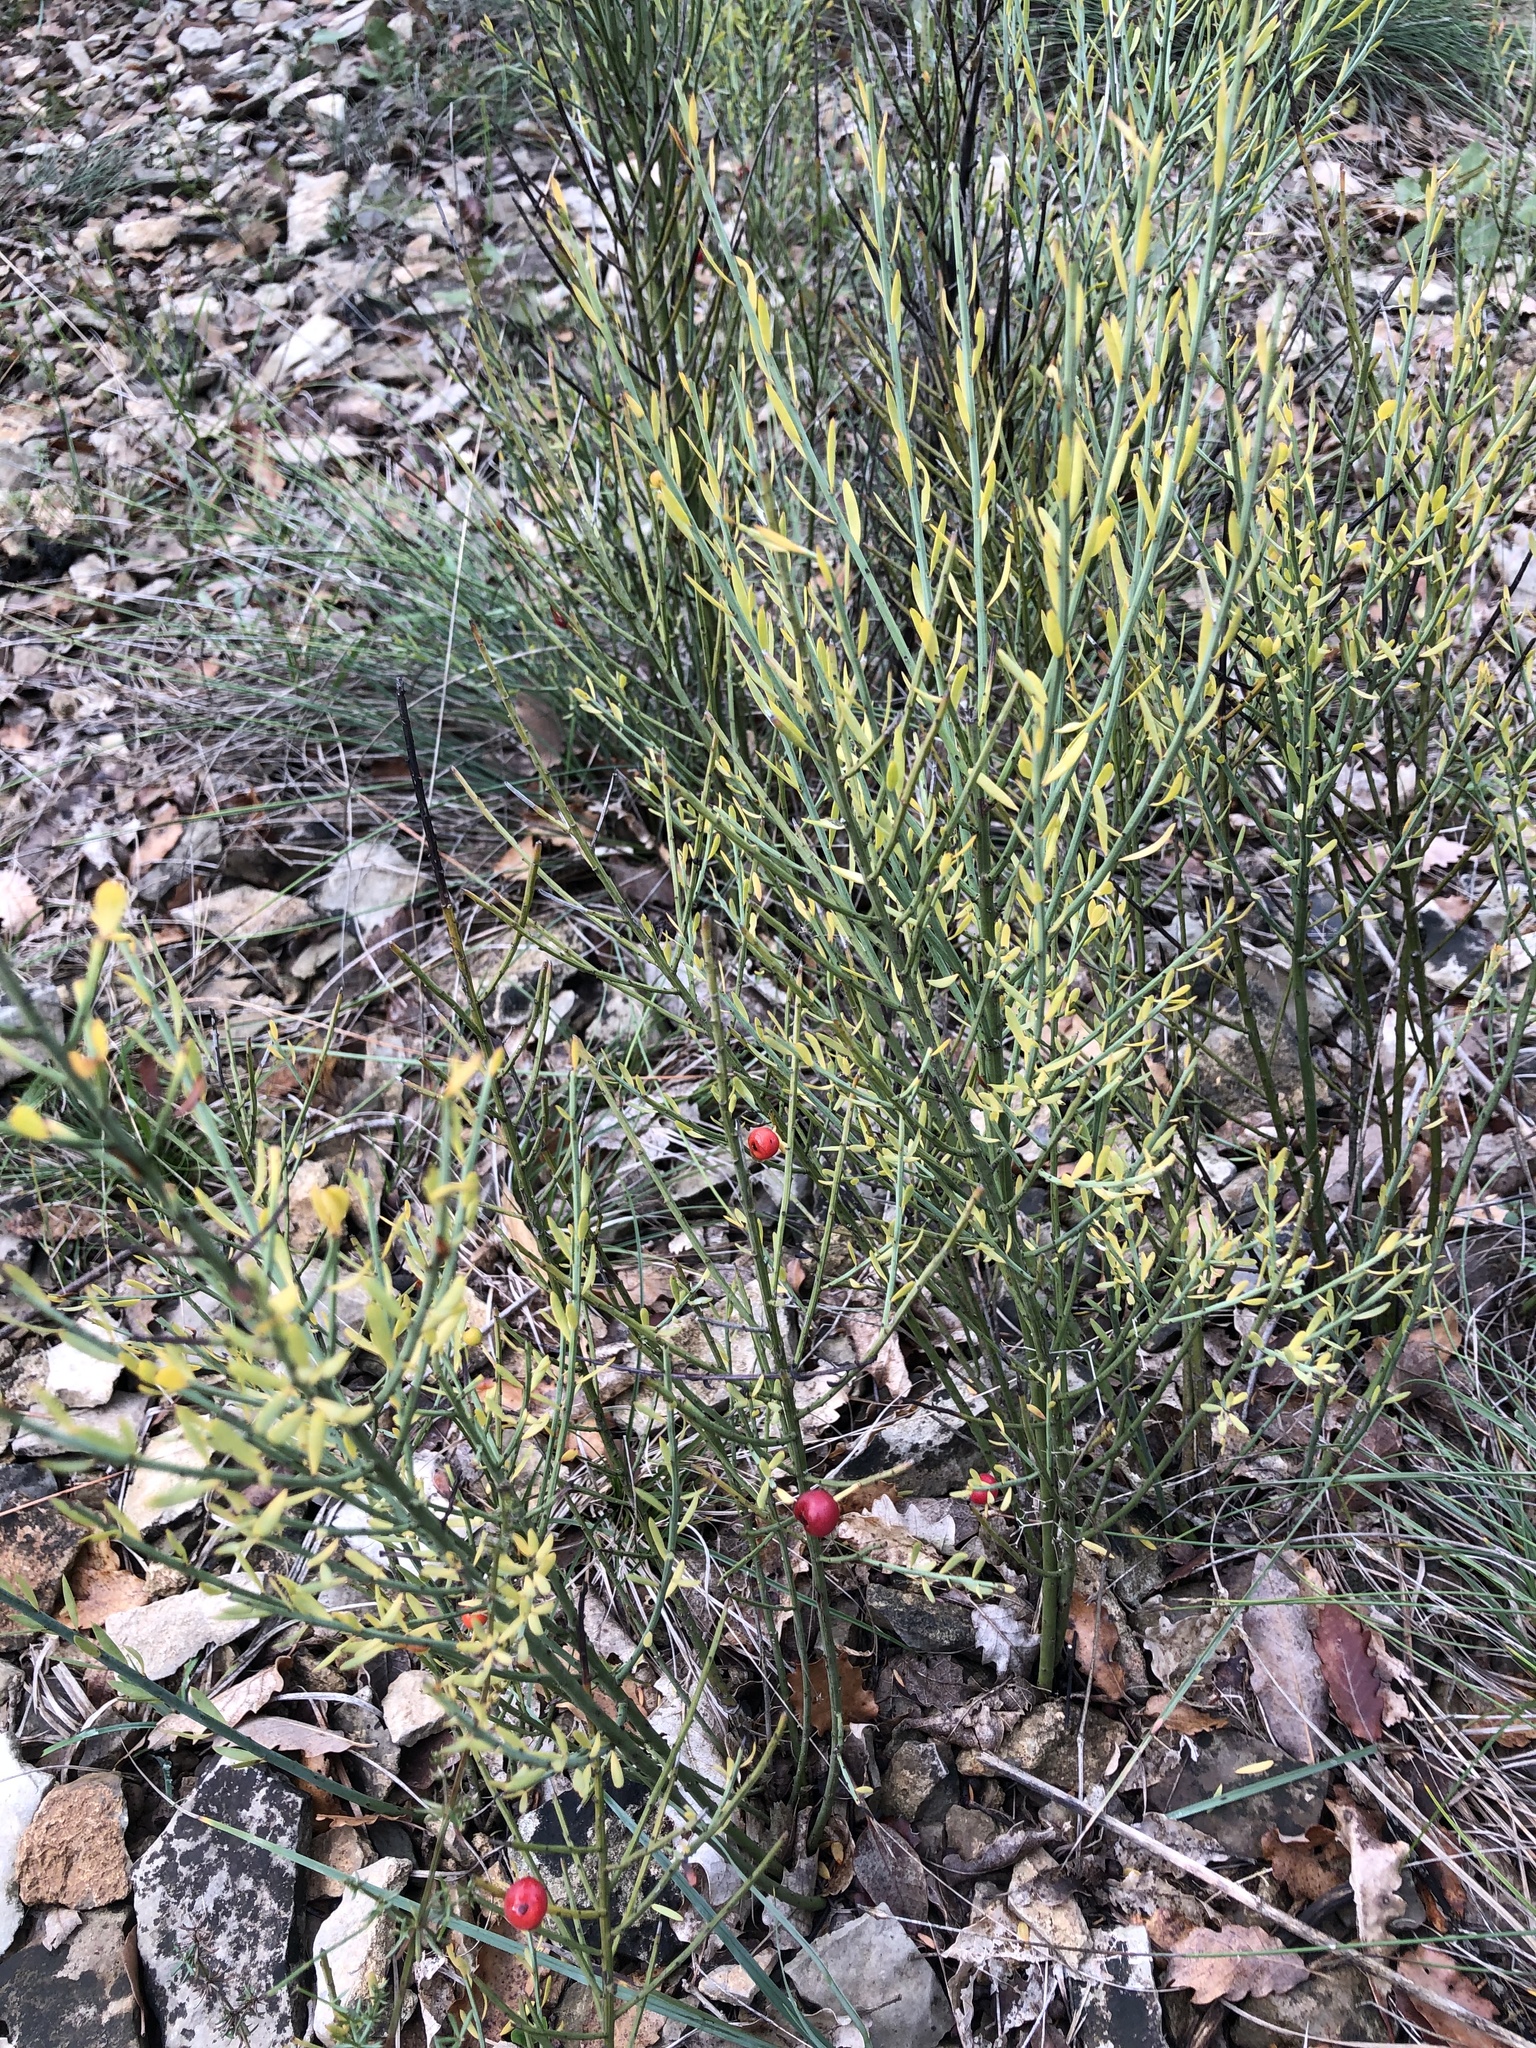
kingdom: Plantae
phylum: Tracheophyta
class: Magnoliopsida
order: Santalales
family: Santalaceae
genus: Osyris
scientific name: Osyris alba
